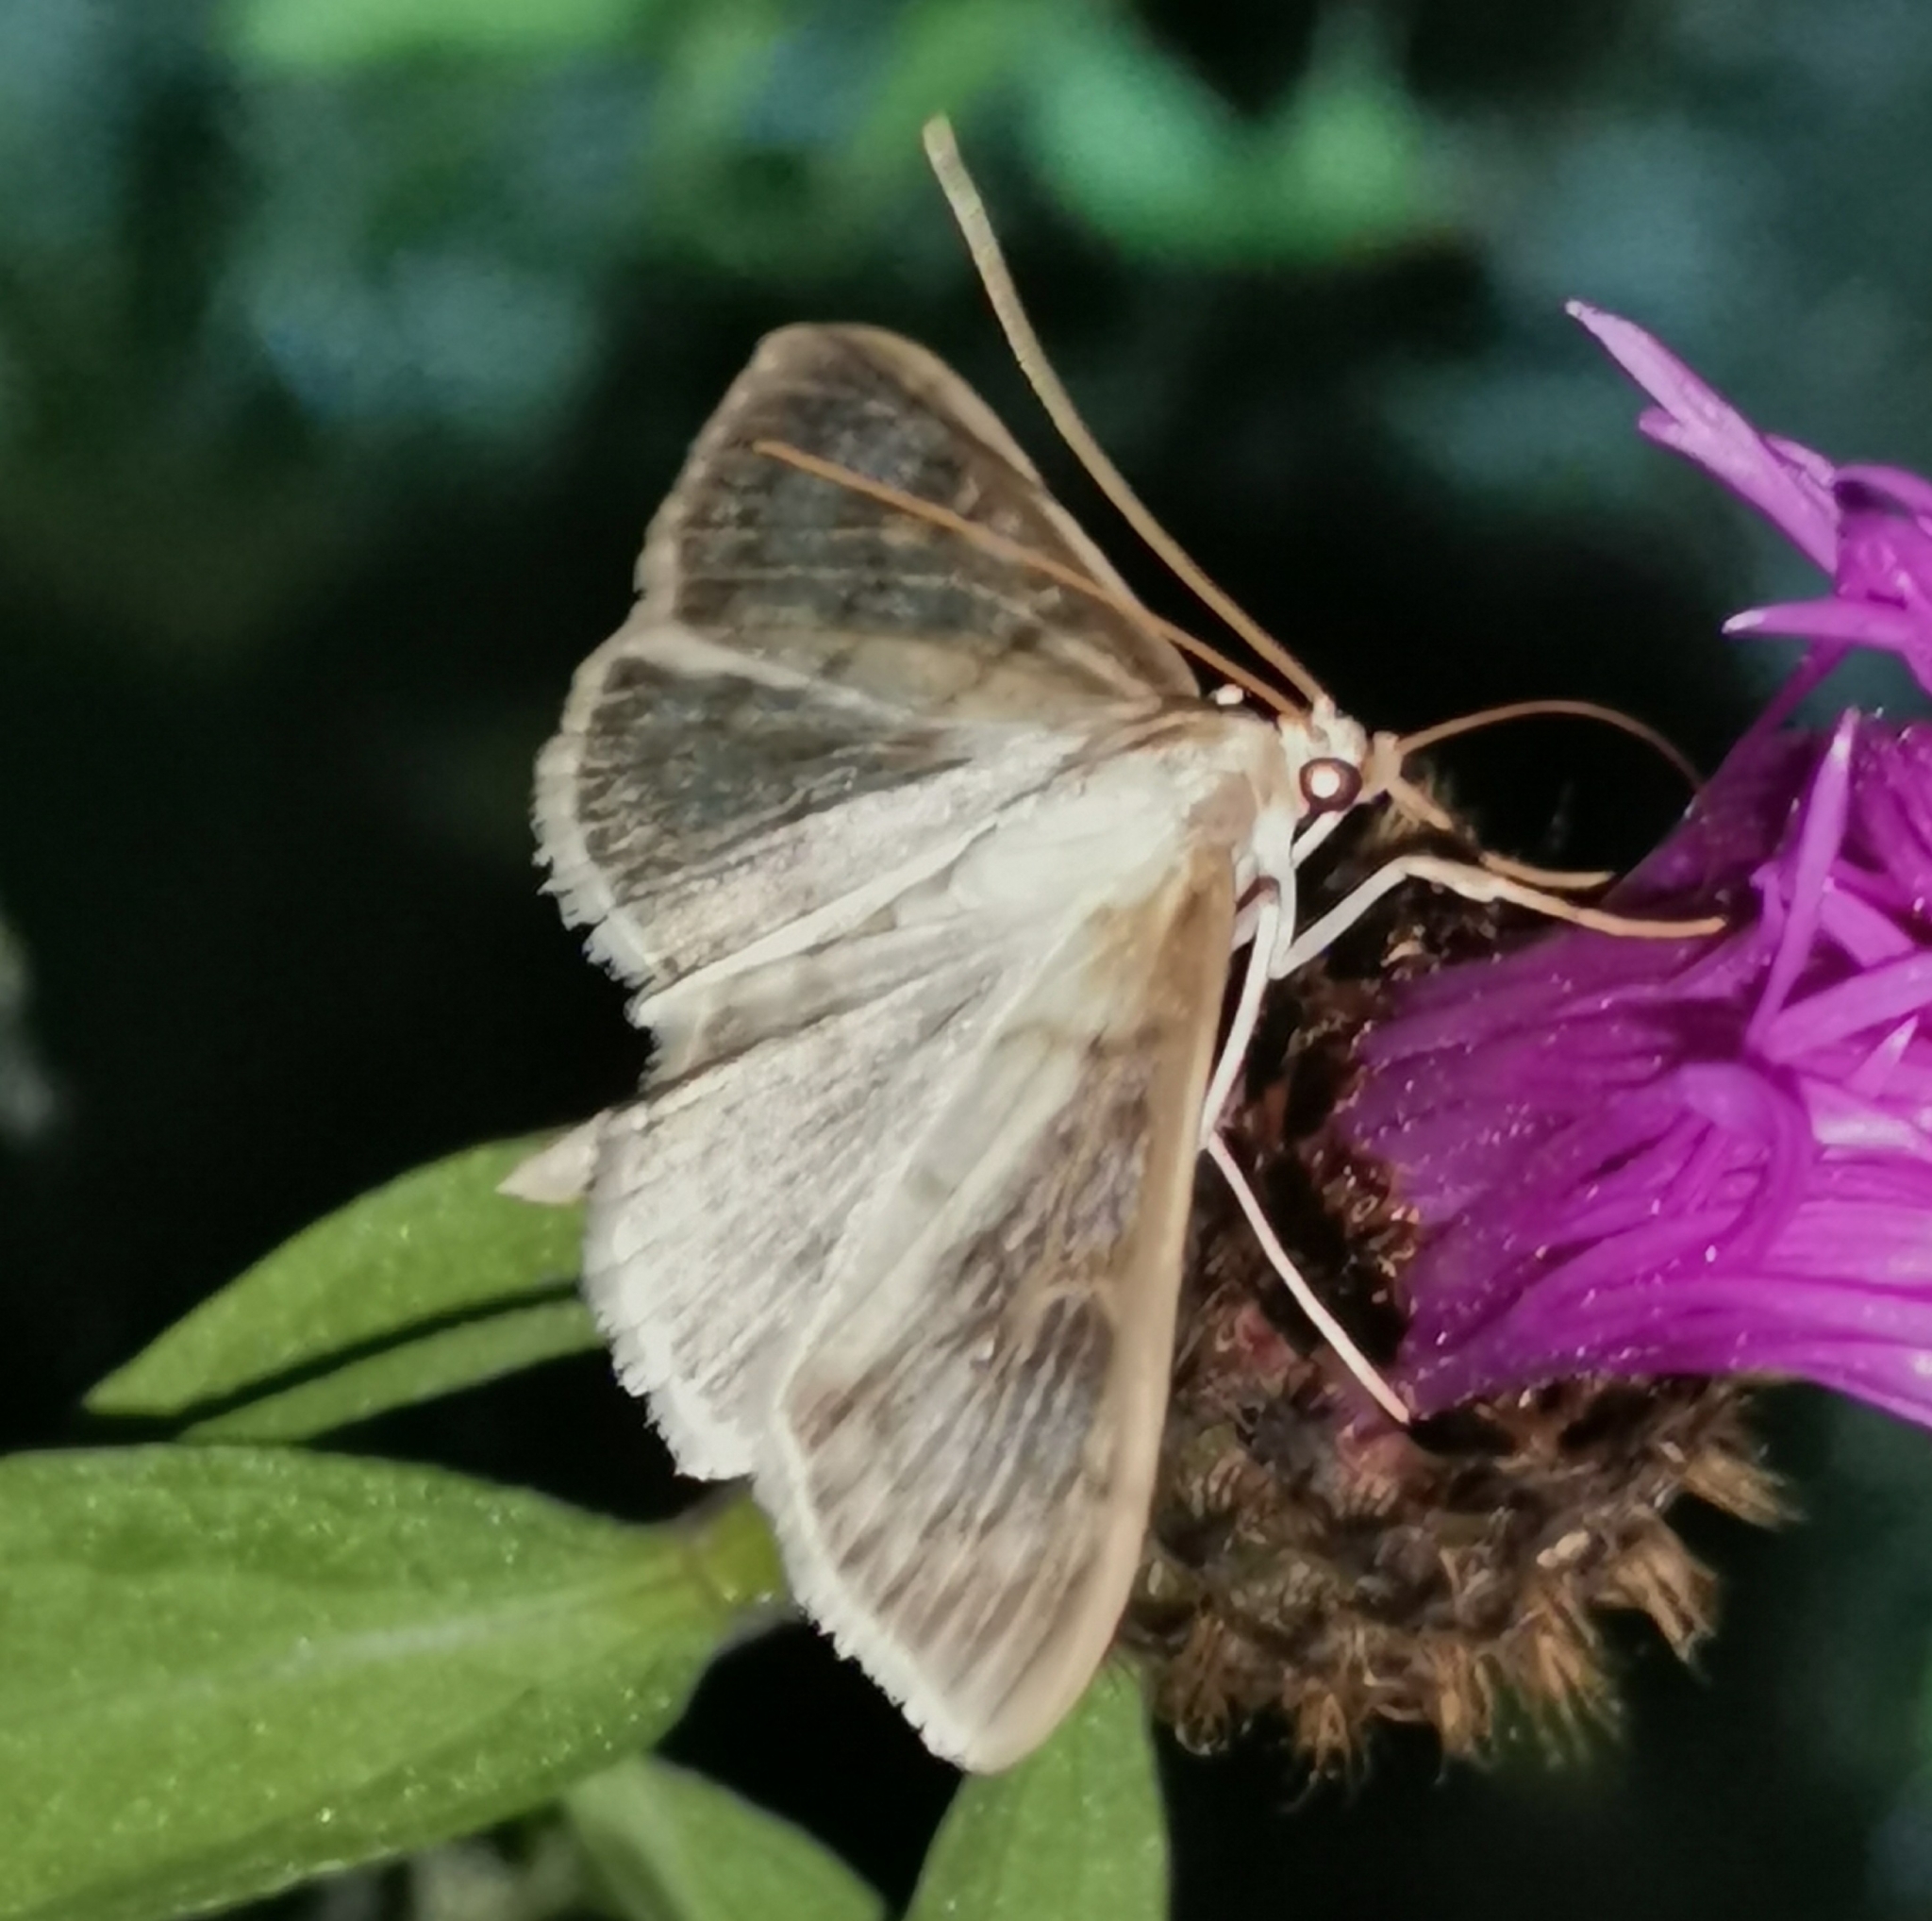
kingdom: Animalia
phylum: Arthropoda
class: Insecta
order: Lepidoptera
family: Crambidae
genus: Patania
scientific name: Patania ruralis
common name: Mother of pearl
